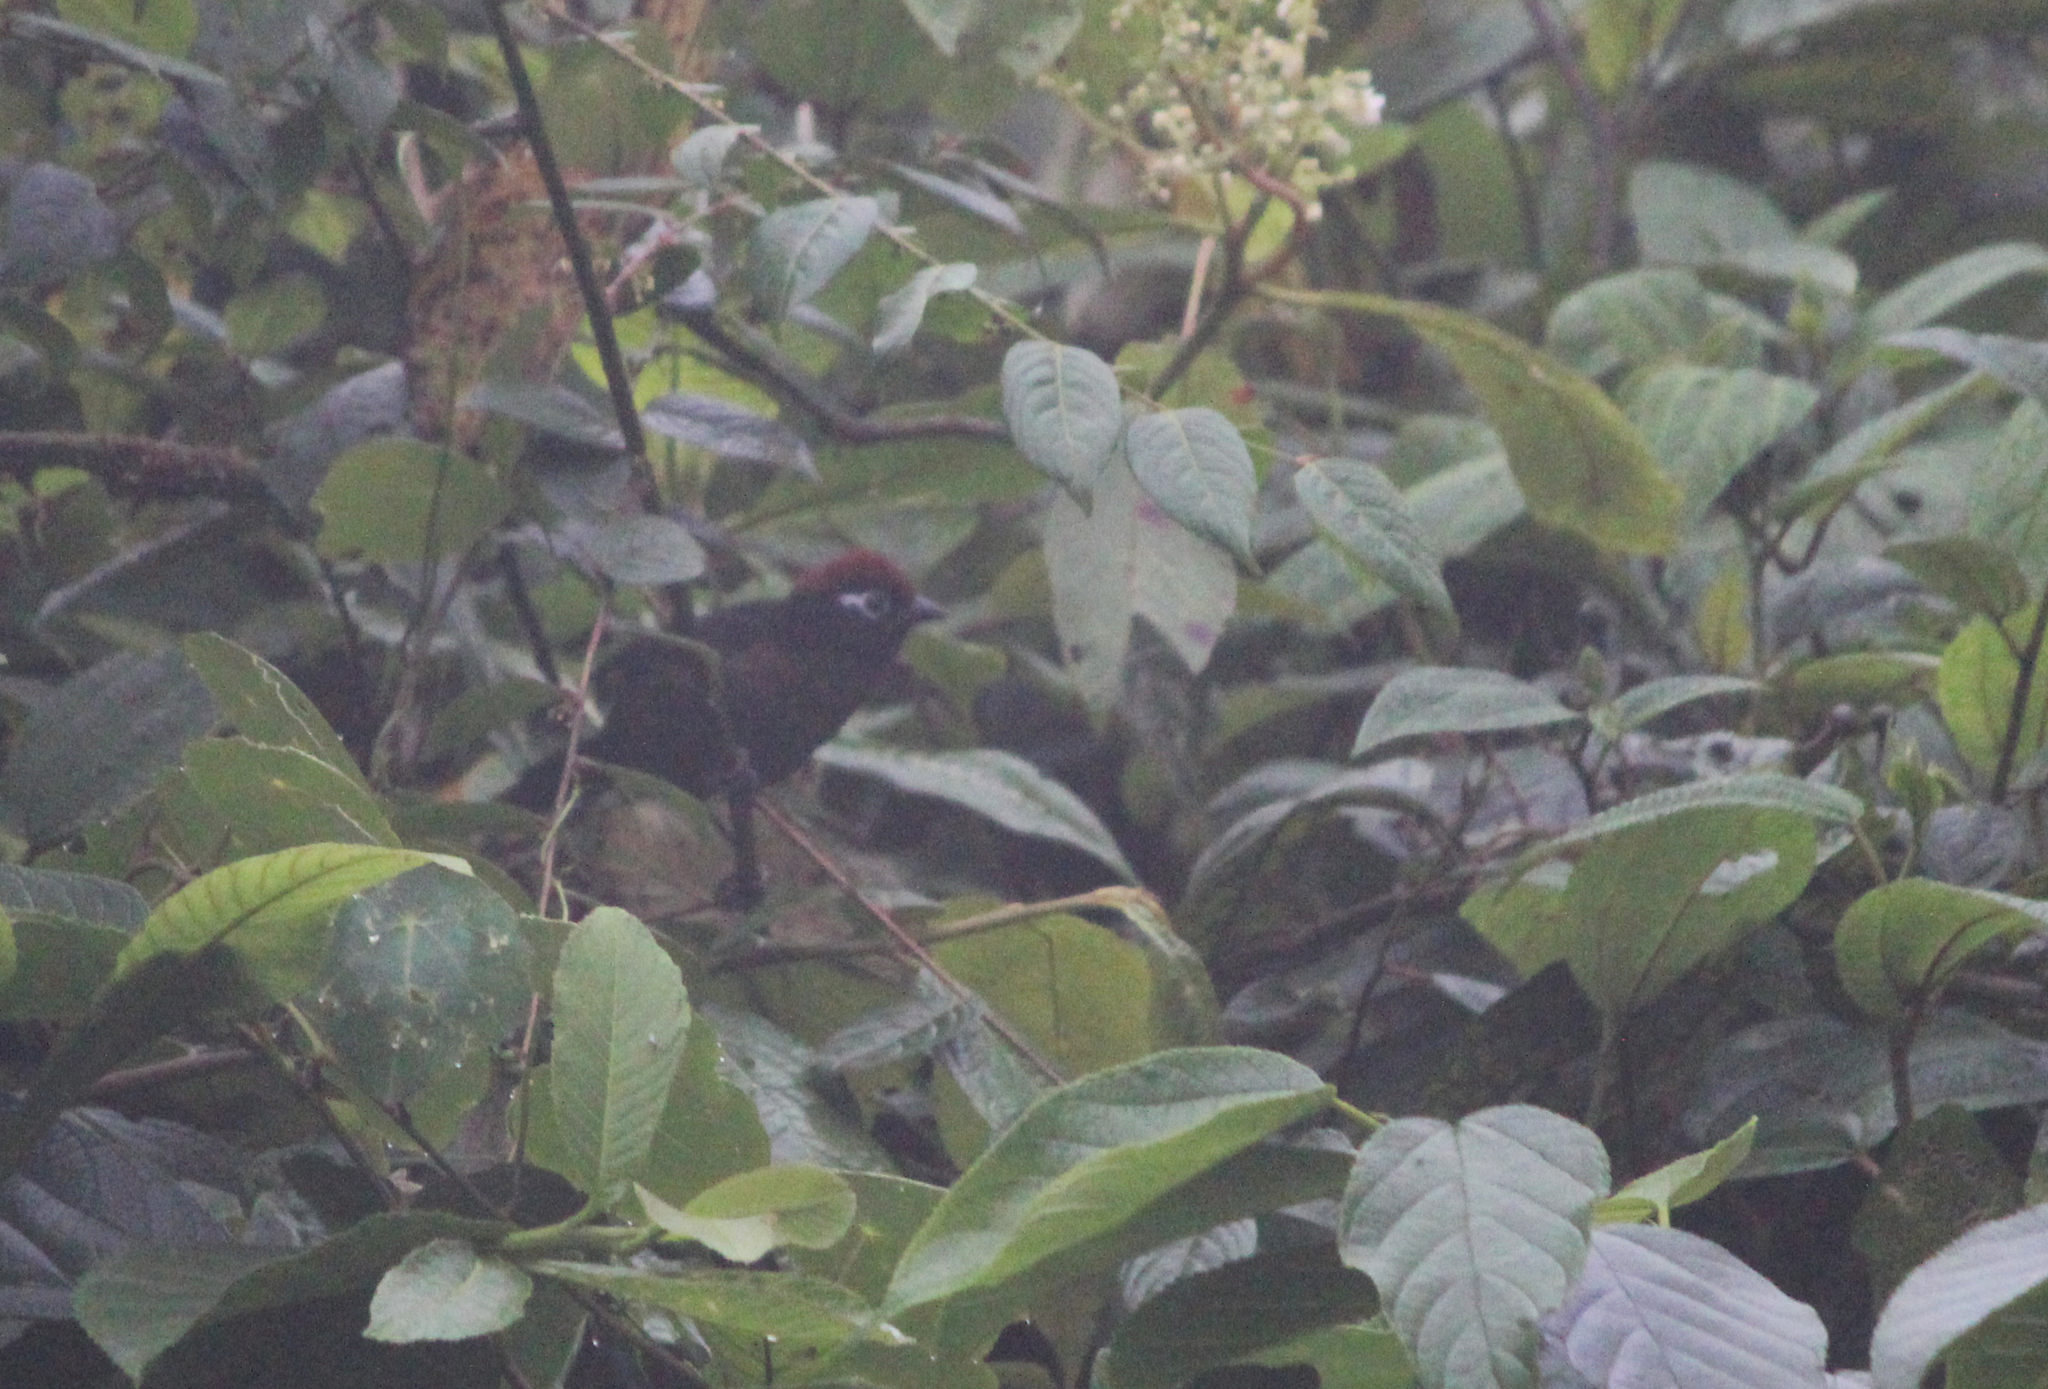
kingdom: Animalia
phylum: Chordata
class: Aves
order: Passeriformes
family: Passerellidae
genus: Atlapetes
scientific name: Atlapetes leucopis
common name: White-rimmed brushfinch
